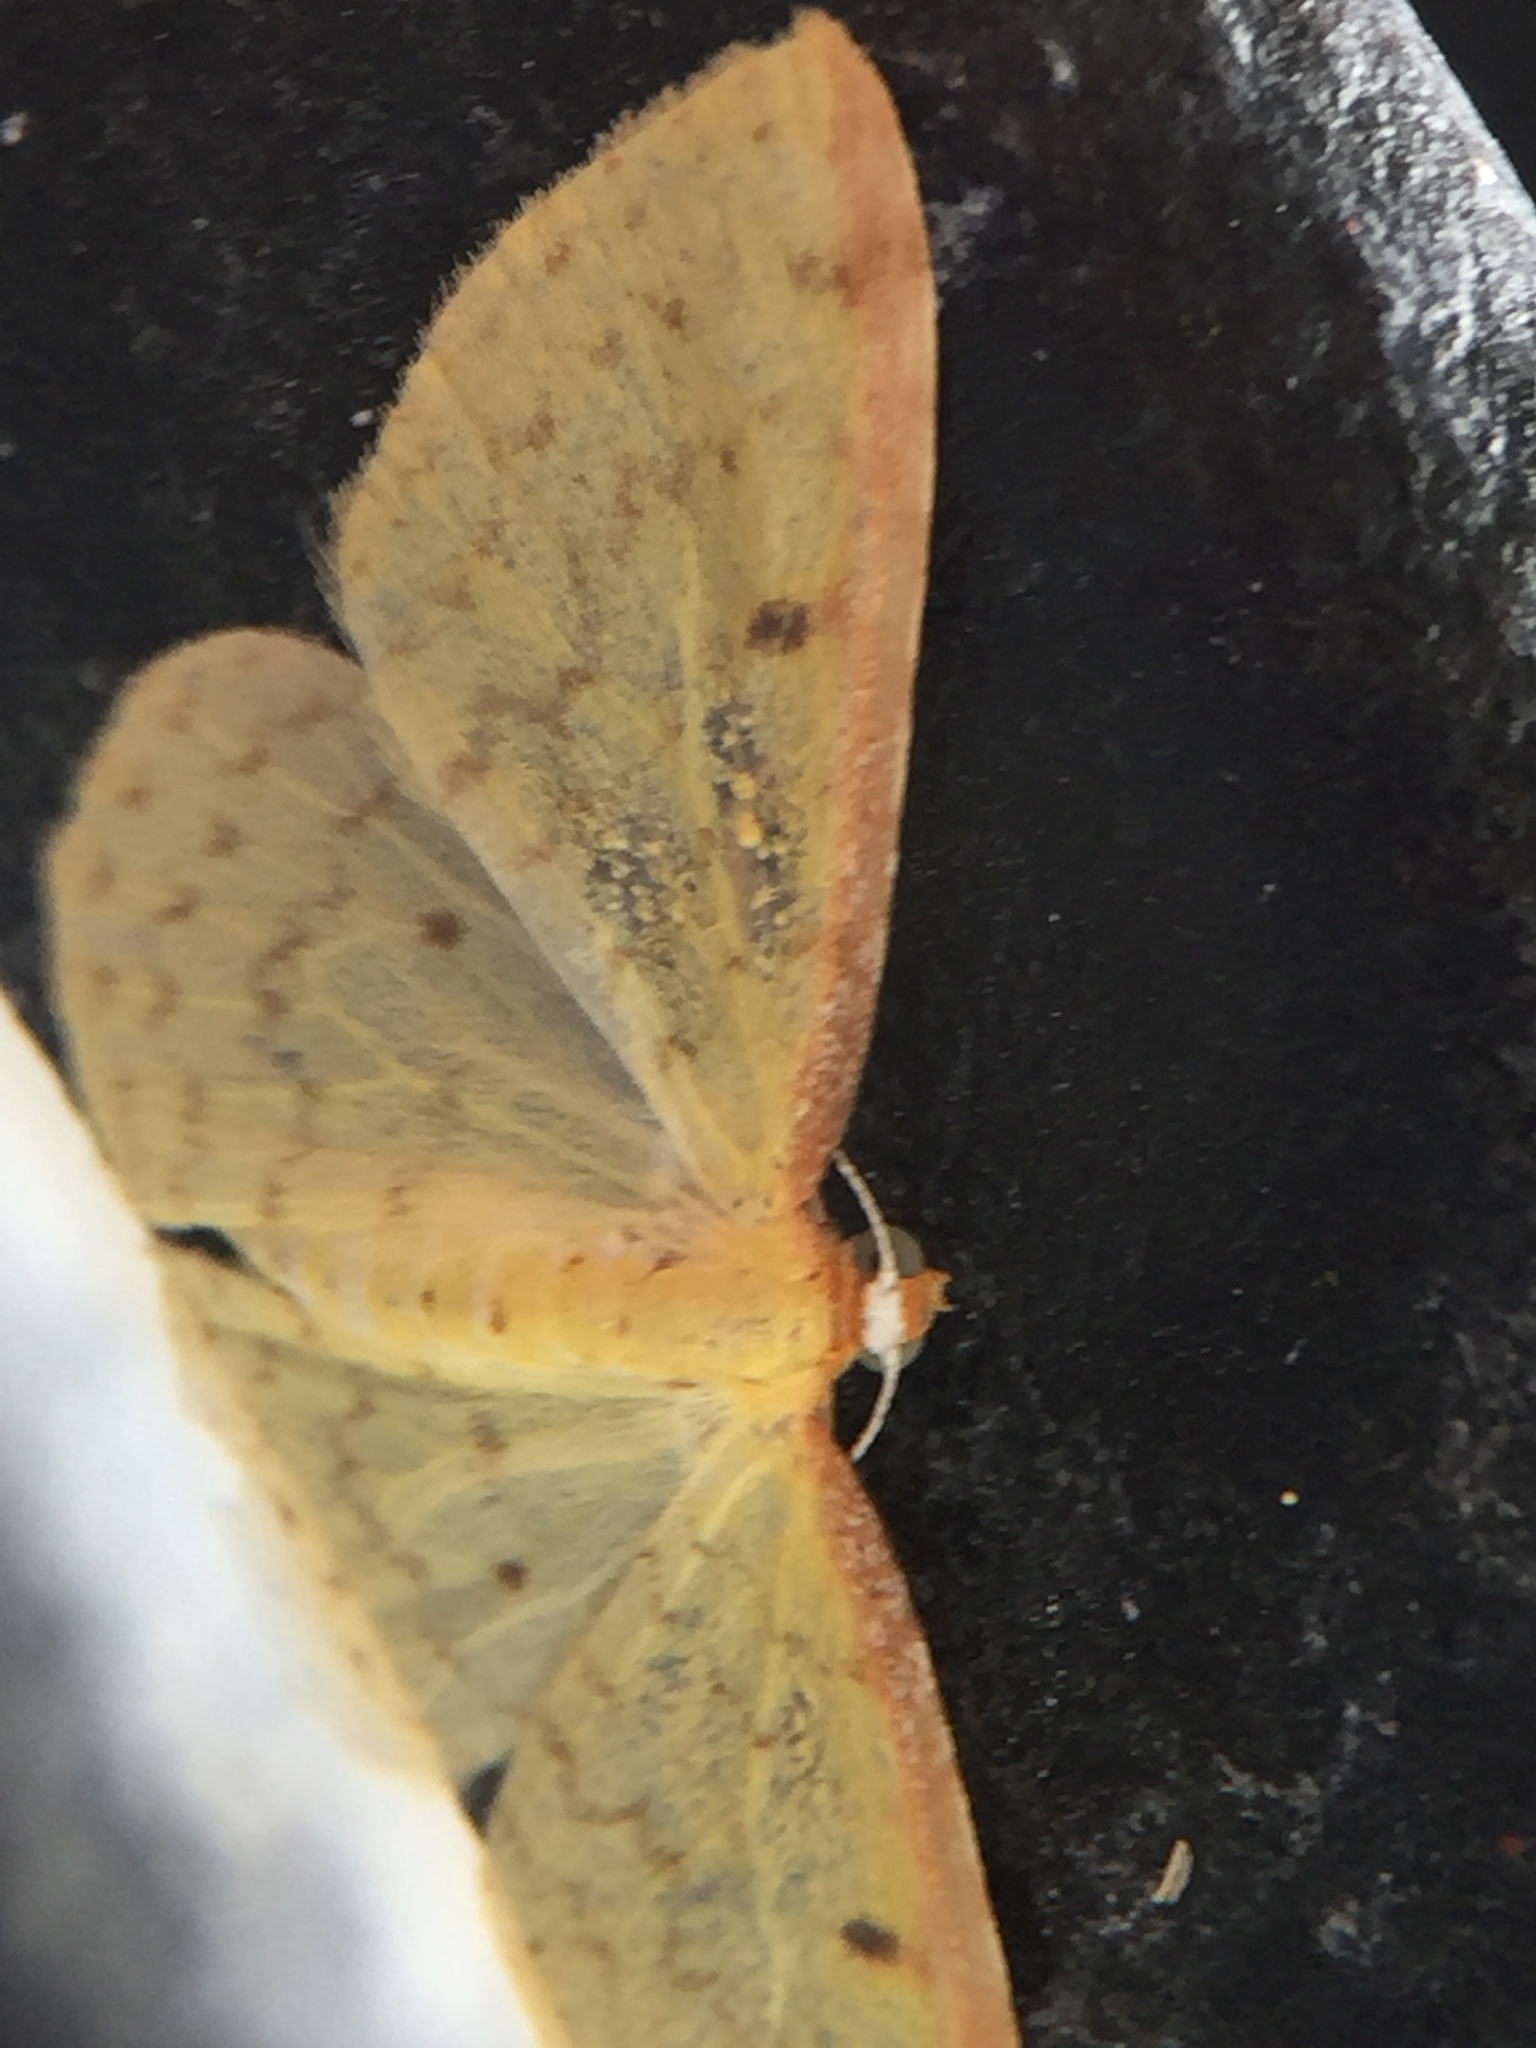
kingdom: Animalia
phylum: Arthropoda
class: Insecta
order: Lepidoptera
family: Geometridae
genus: Epiphryne
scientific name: Epiphryne undosata
